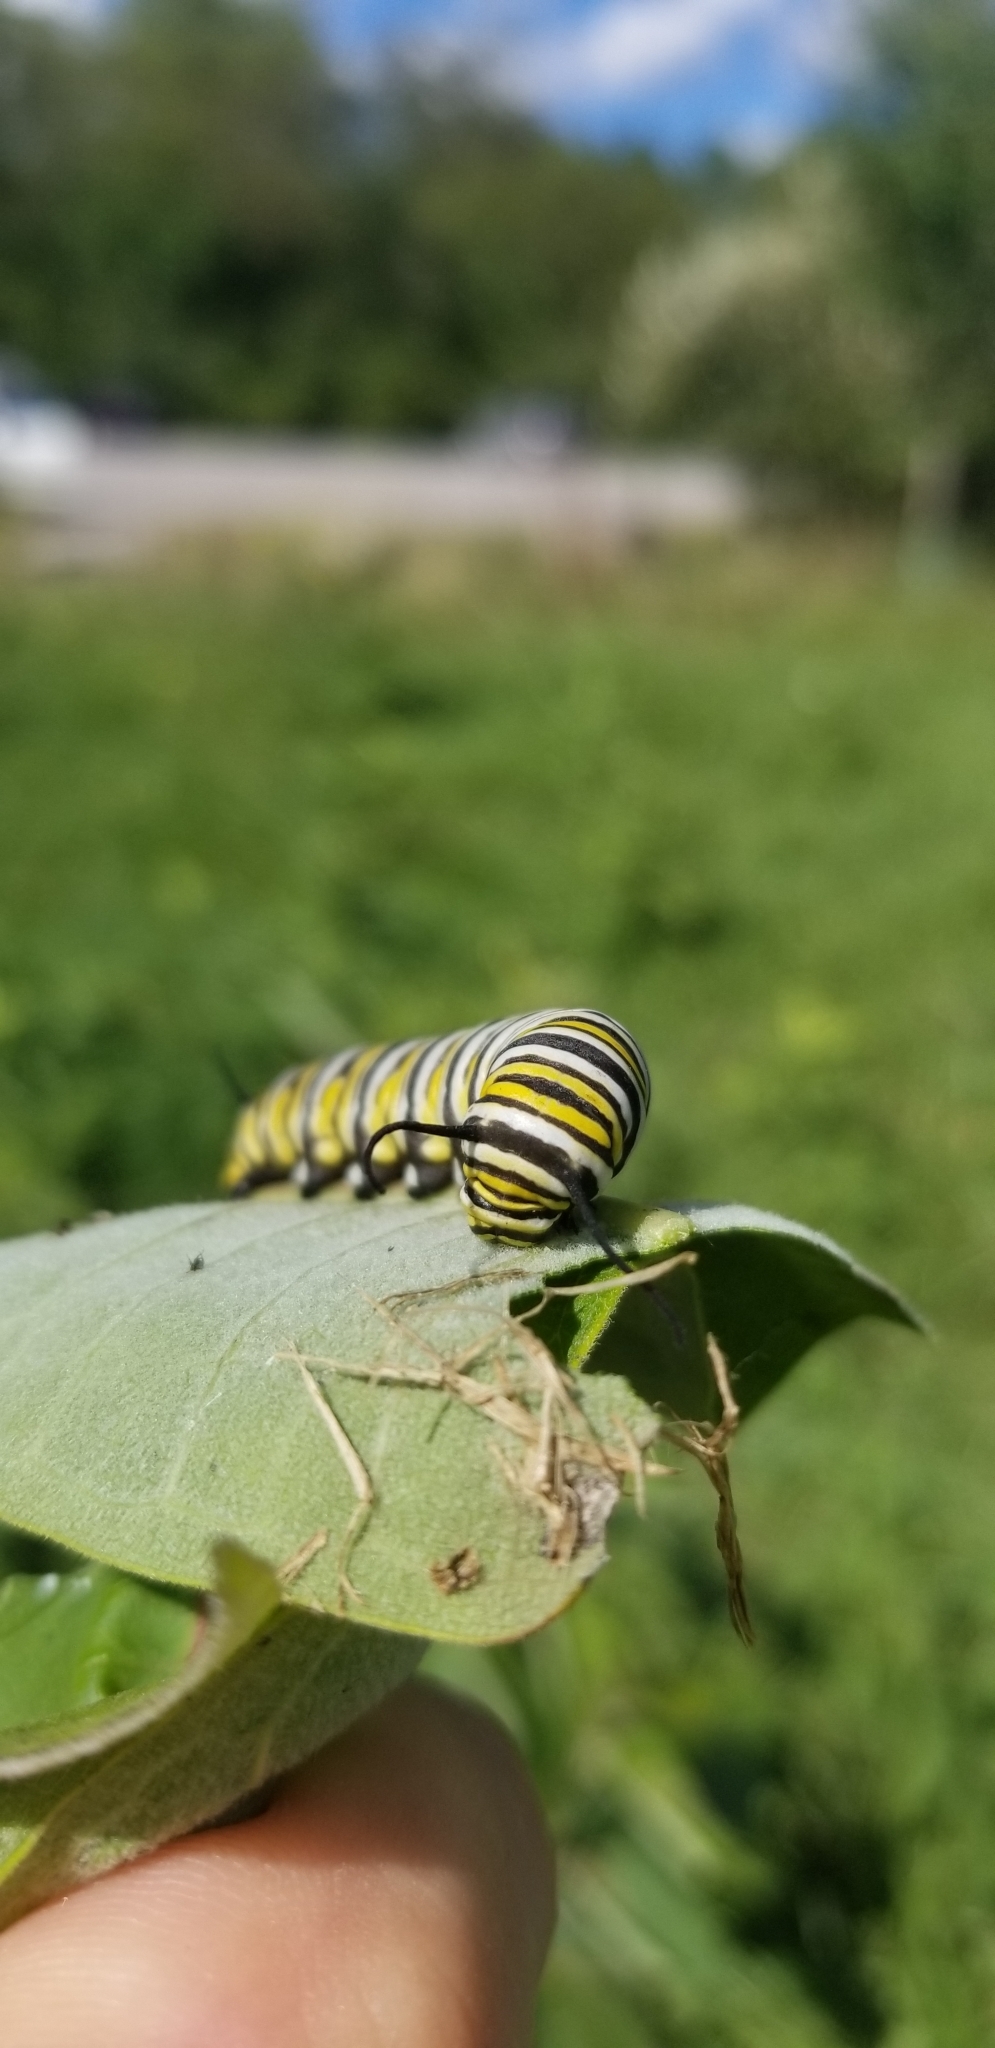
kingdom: Animalia
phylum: Arthropoda
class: Insecta
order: Lepidoptera
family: Nymphalidae
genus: Danaus
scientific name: Danaus plexippus
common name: Monarch
